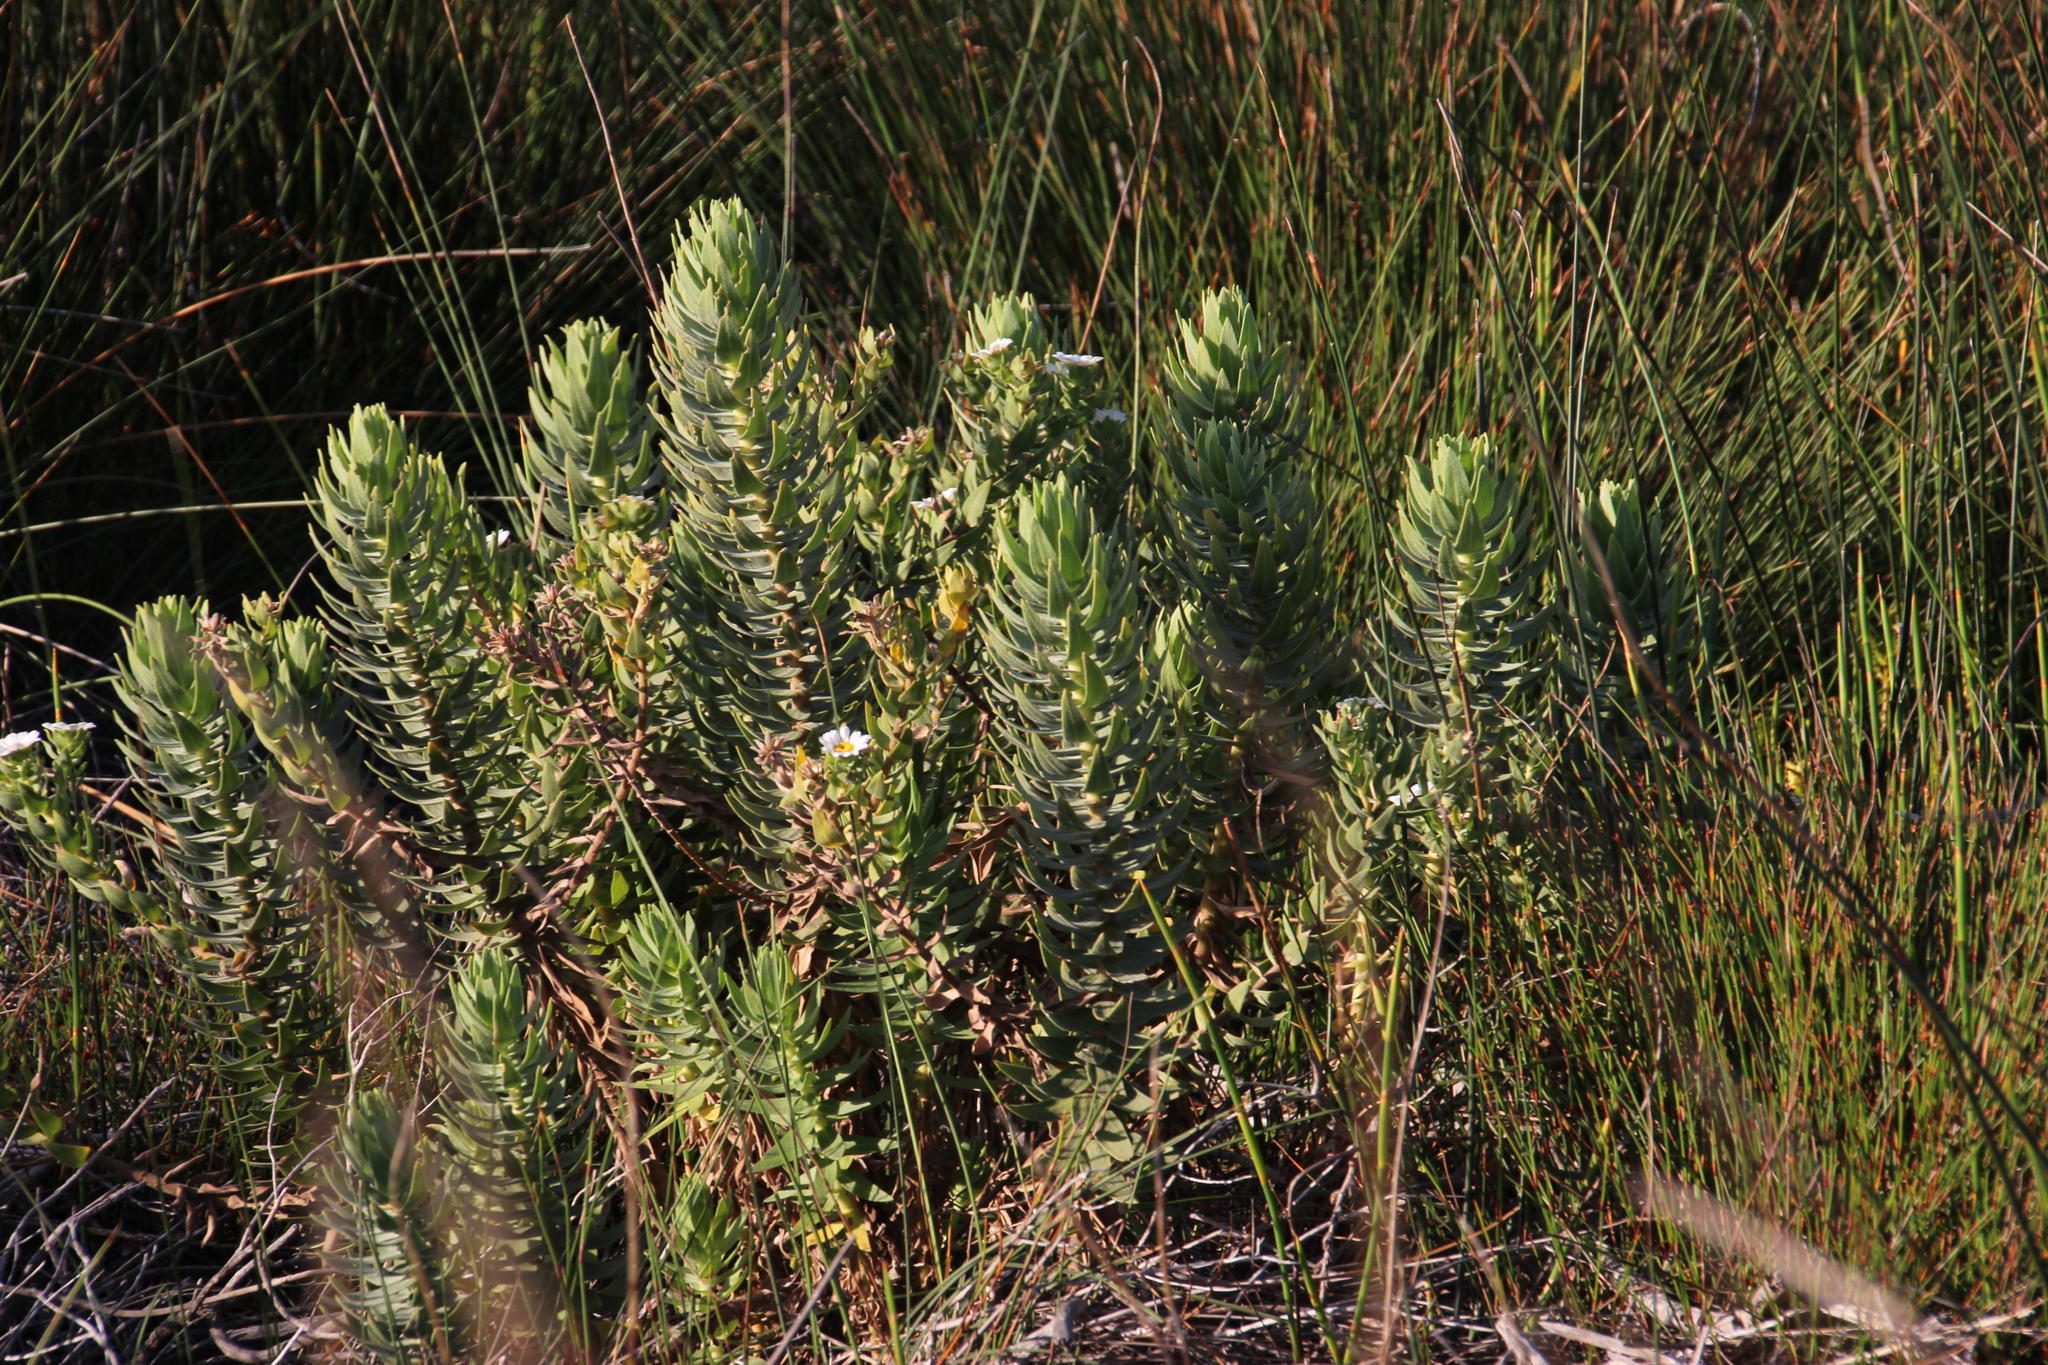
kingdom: Plantae
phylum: Tracheophyta
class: Magnoliopsida
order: Asterales
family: Asteraceae
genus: Osmitopsis
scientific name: Osmitopsis asteriscoides
